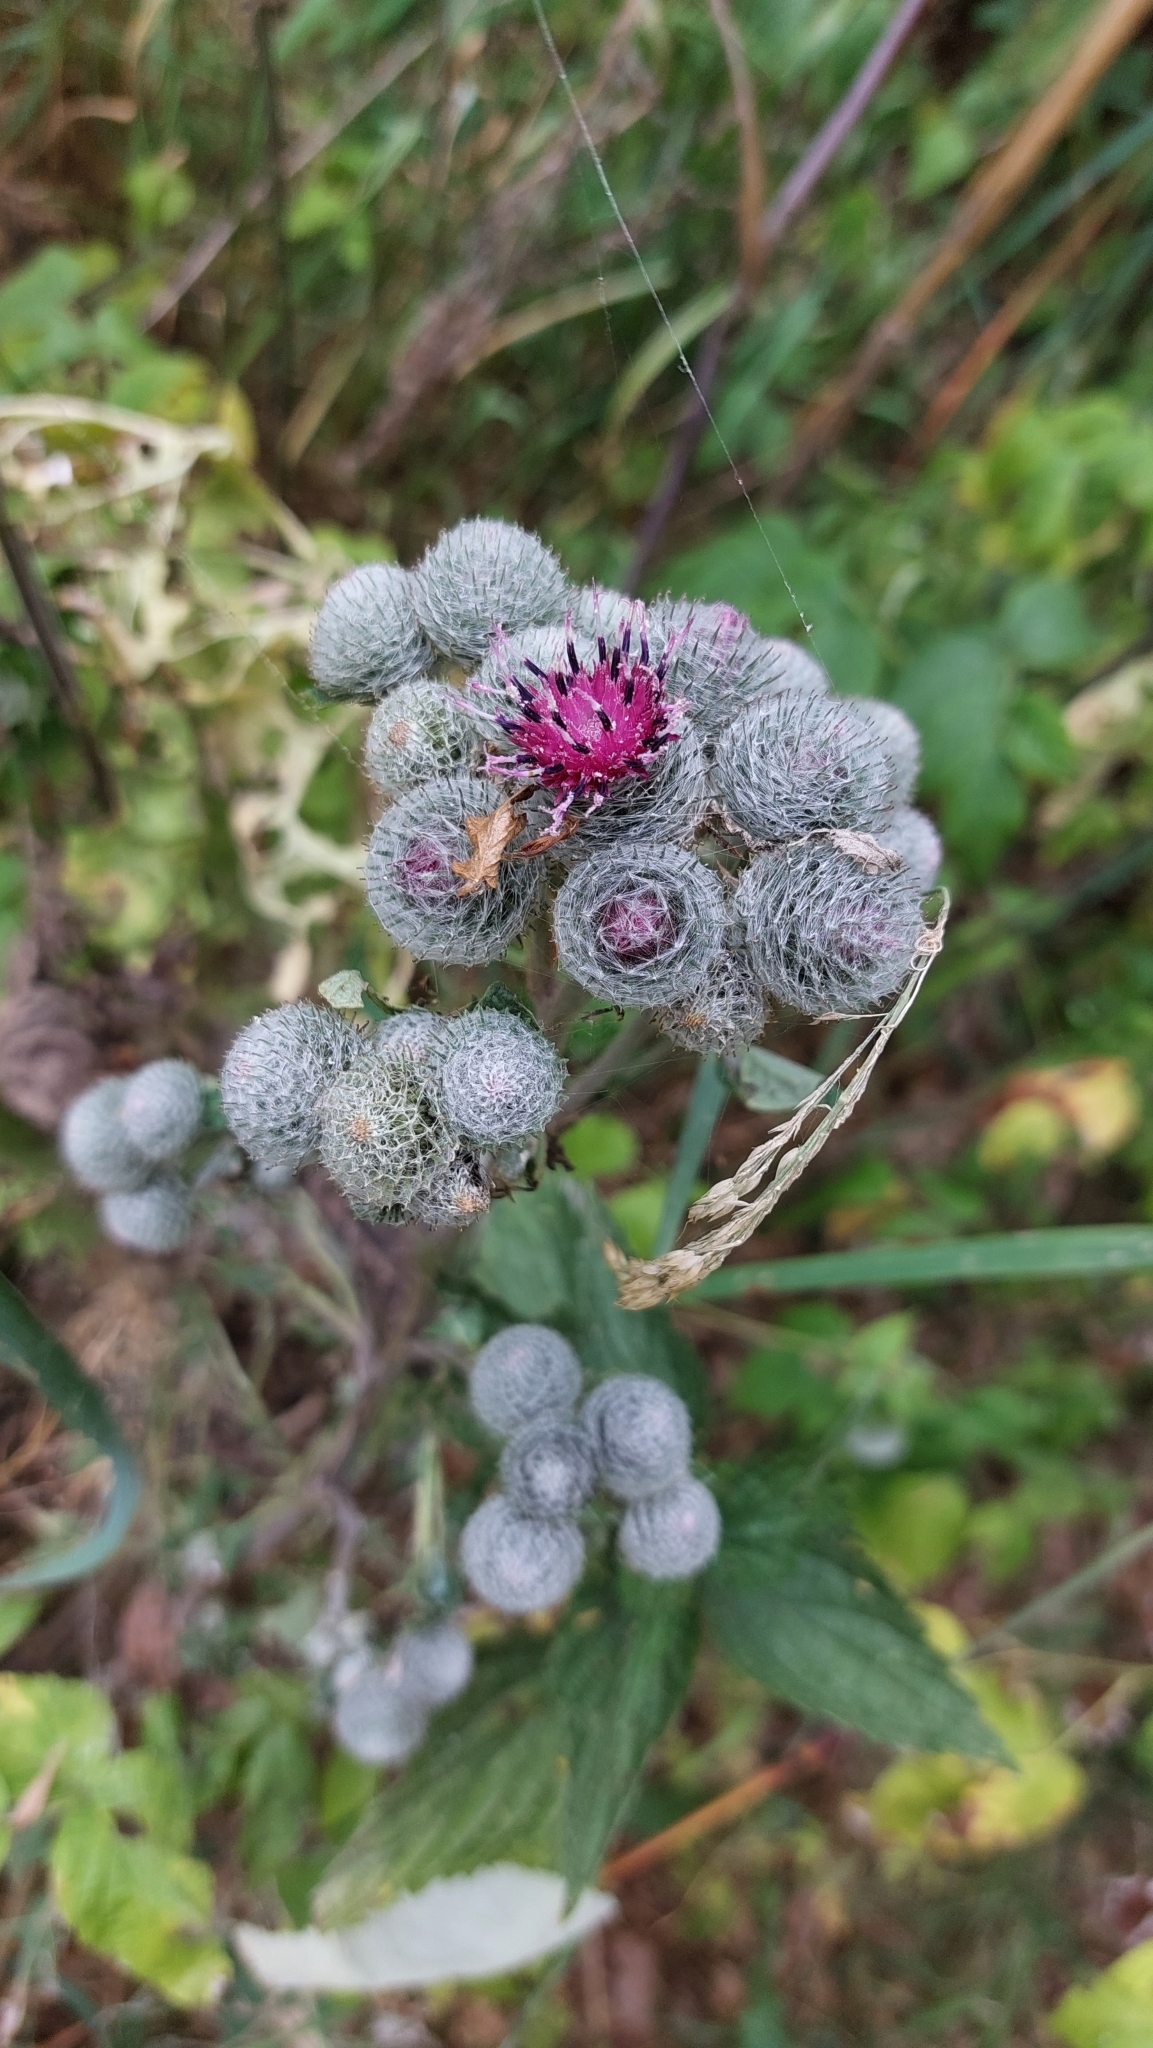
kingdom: Plantae
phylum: Tracheophyta
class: Magnoliopsida
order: Asterales
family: Asteraceae
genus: Arctium
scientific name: Arctium tomentosum
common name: Woolly burdock
